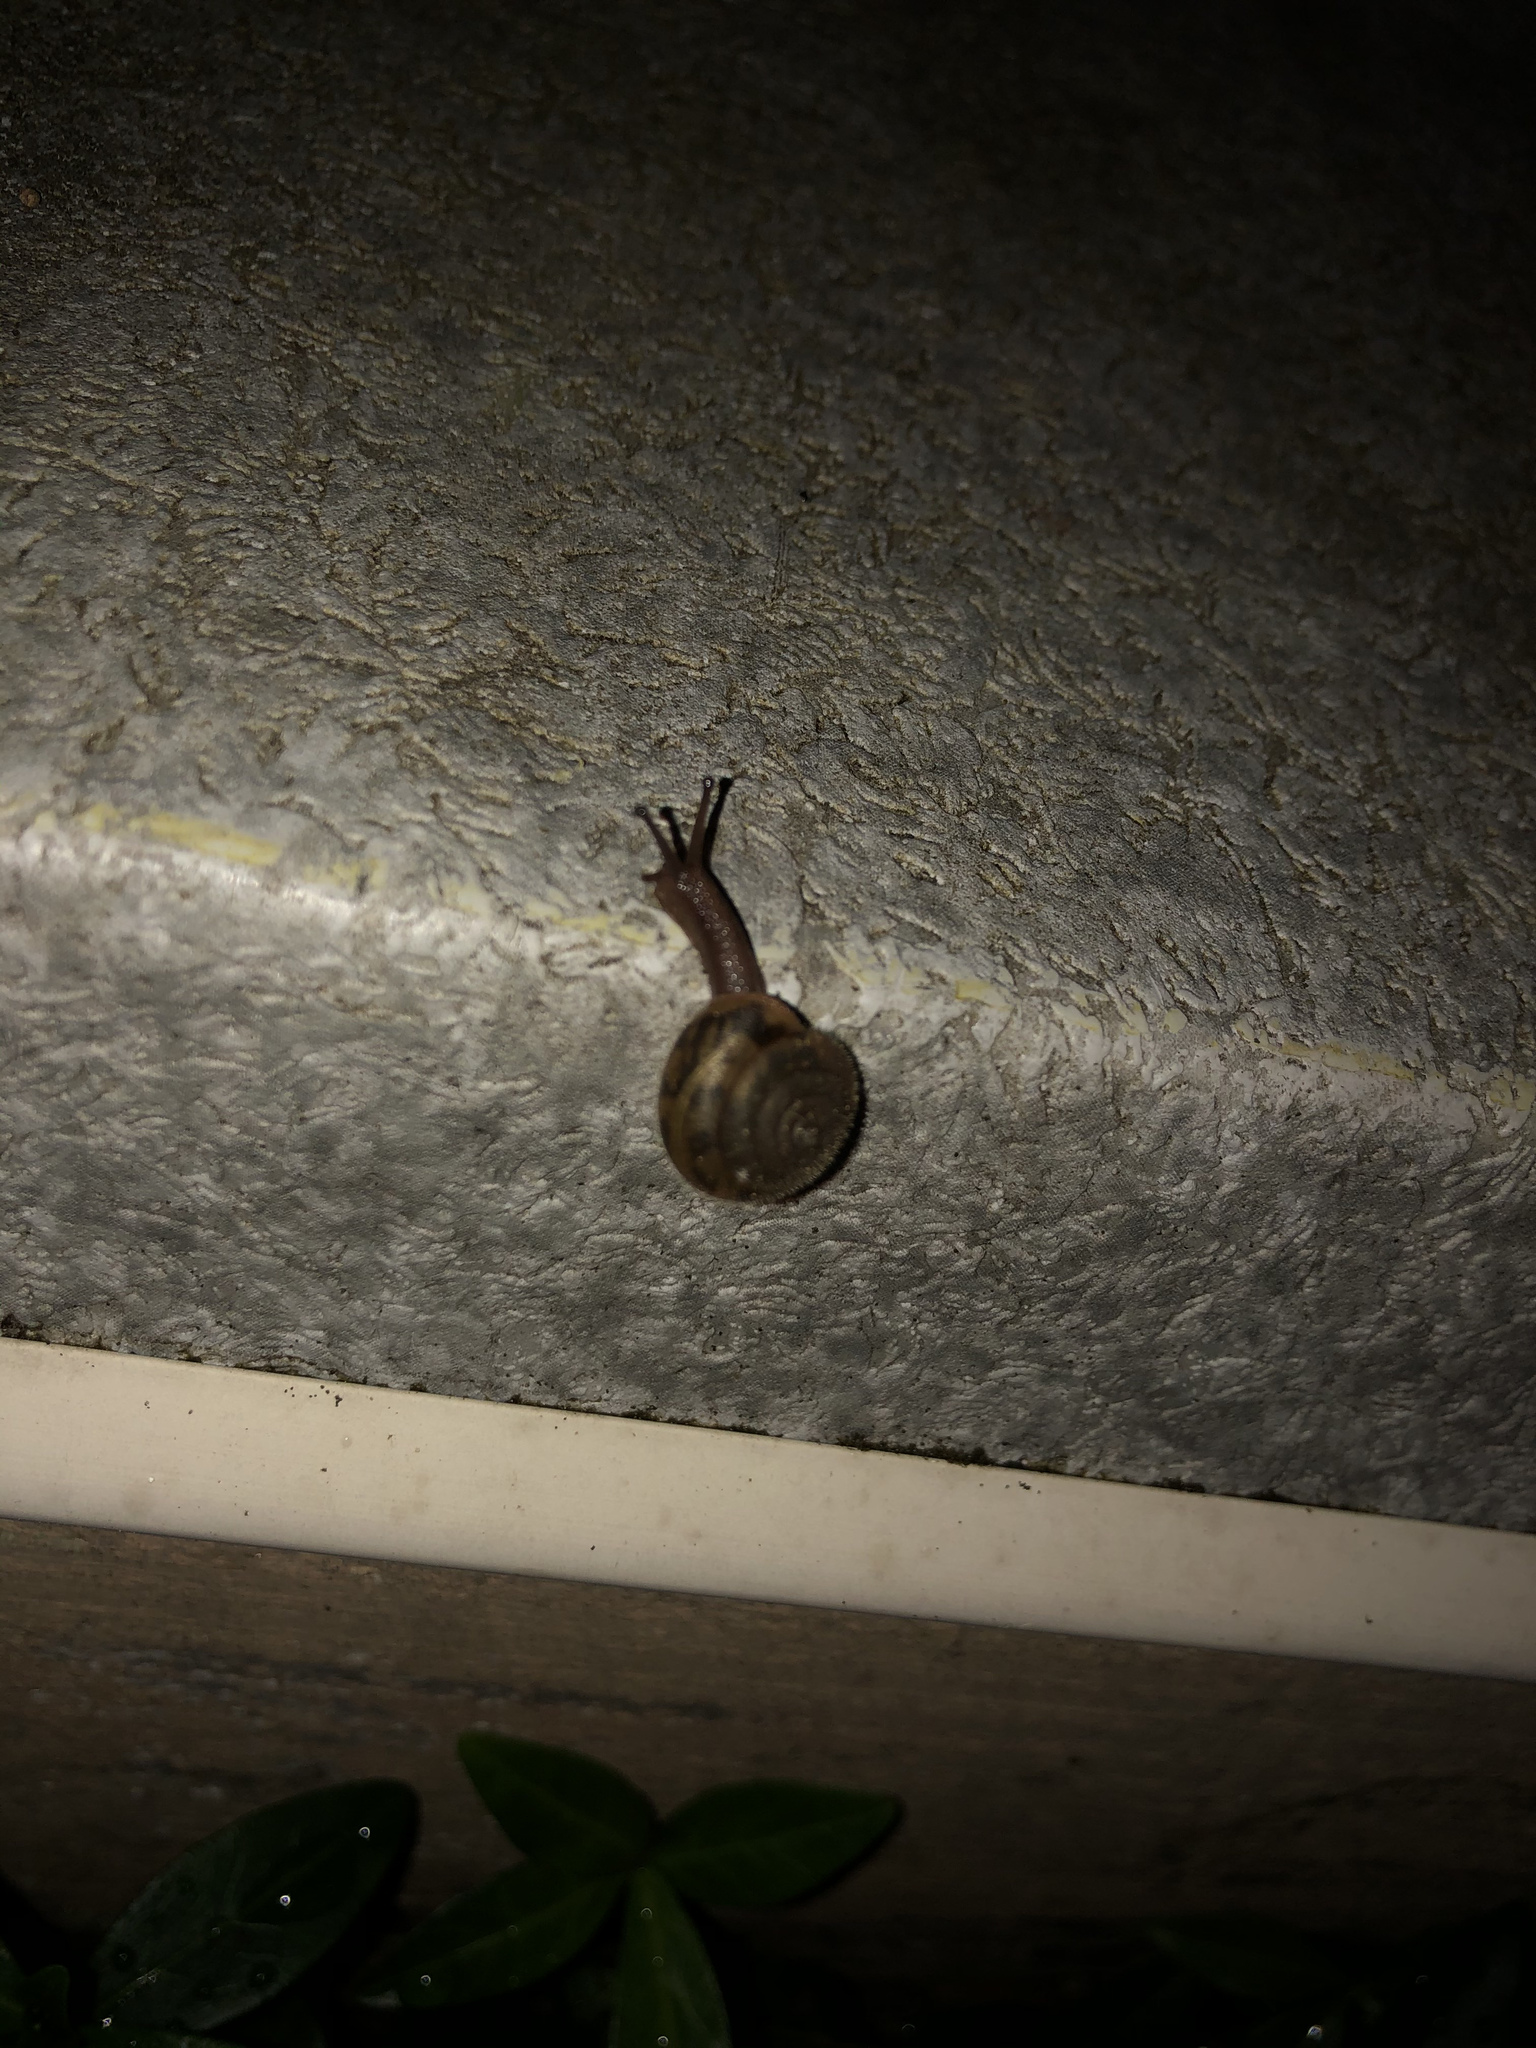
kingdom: Animalia
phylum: Mollusca
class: Gastropoda
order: Stylommatophora
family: Polygyridae
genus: Vespericola
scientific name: Vespericola columbianus
